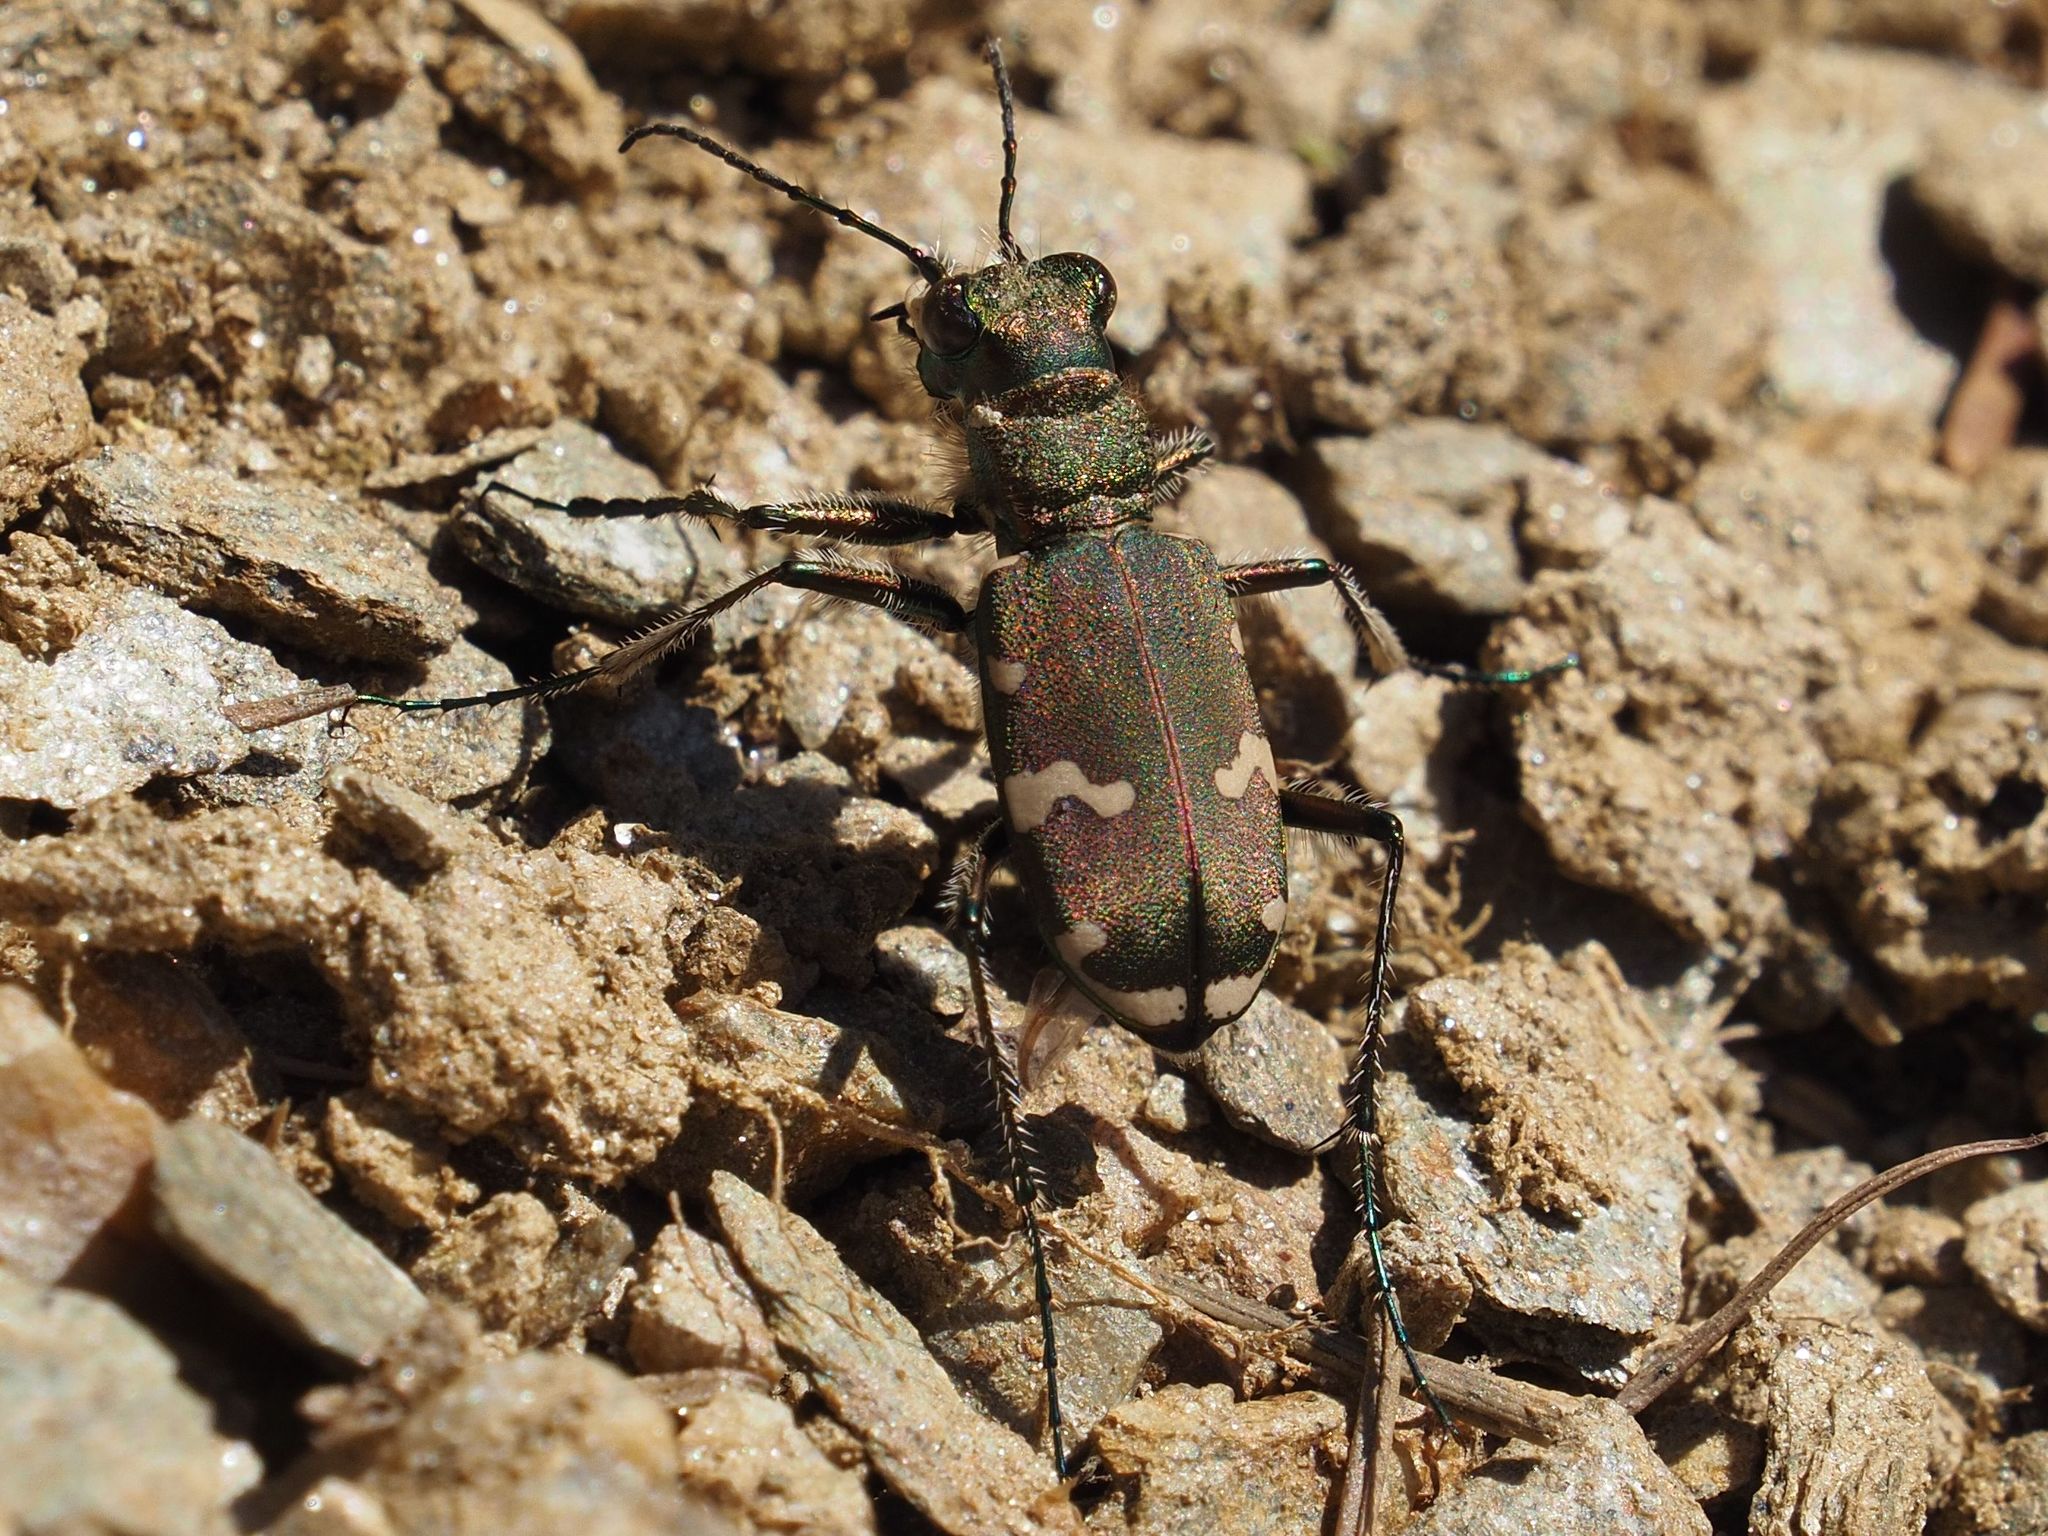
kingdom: Animalia
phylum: Arthropoda
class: Insecta
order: Coleoptera
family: Carabidae
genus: Cicindela
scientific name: Cicindela sylvicola
